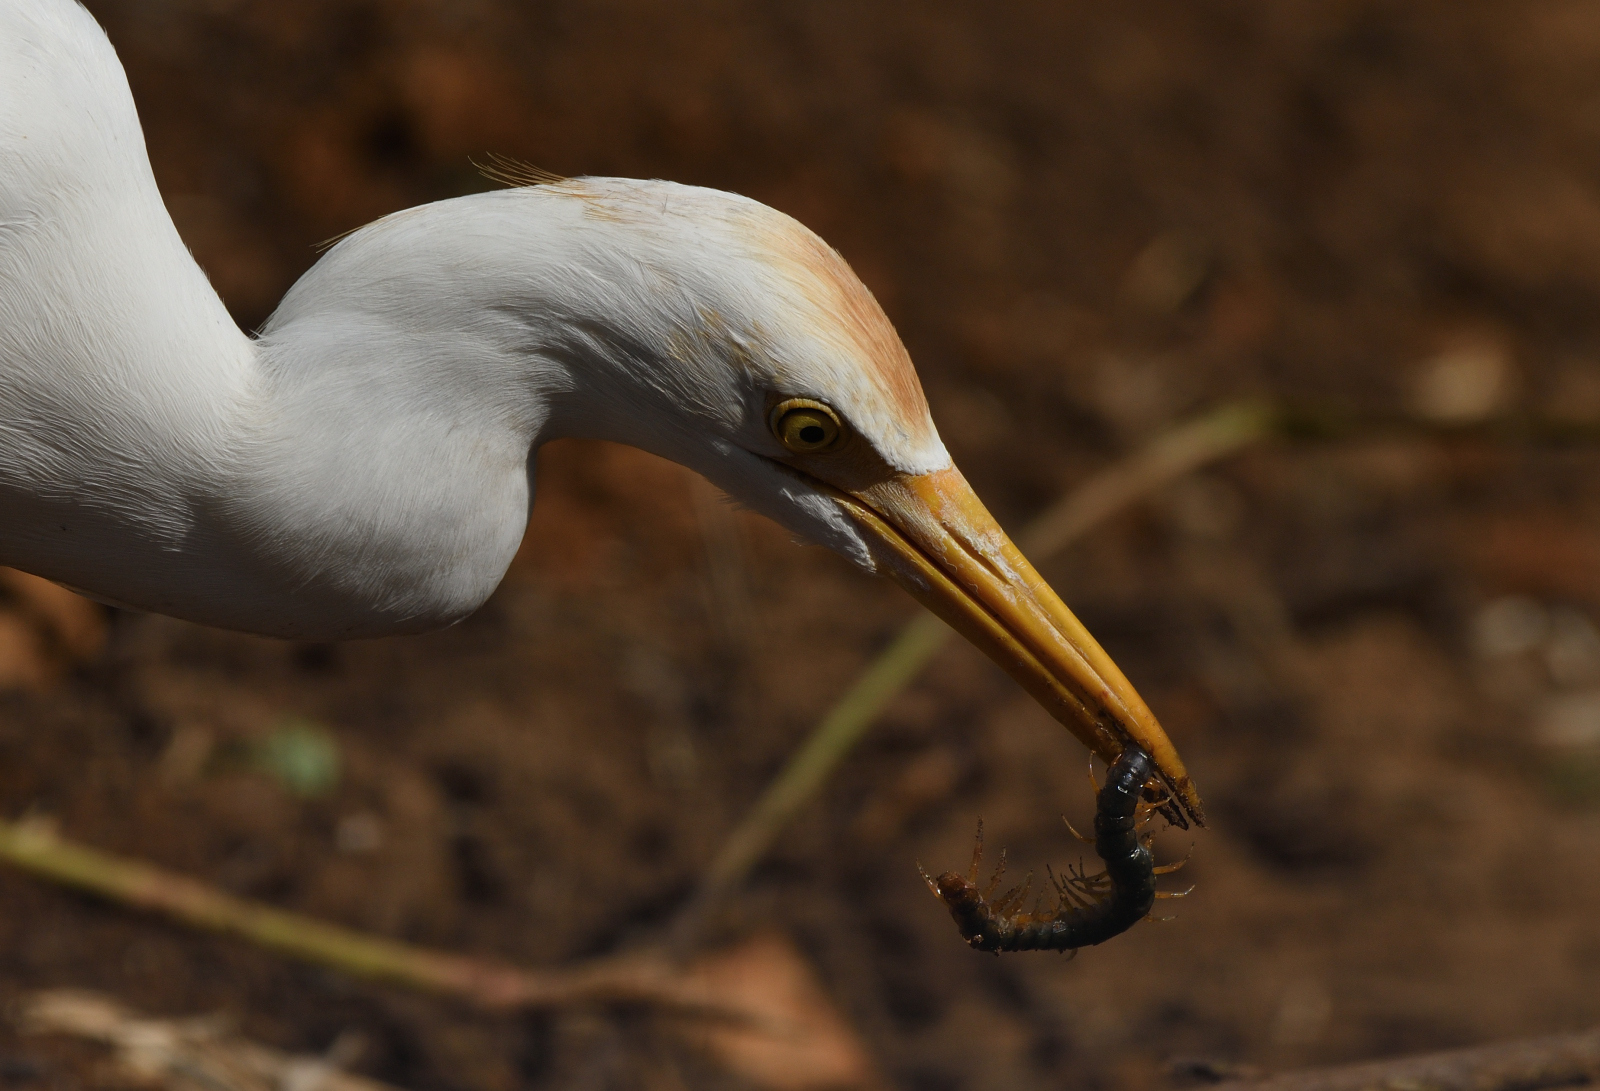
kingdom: Animalia
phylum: Chordata
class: Aves
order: Pelecaniformes
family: Ardeidae
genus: Bubulcus
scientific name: Bubulcus coromandus
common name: Eastern cattle egret
